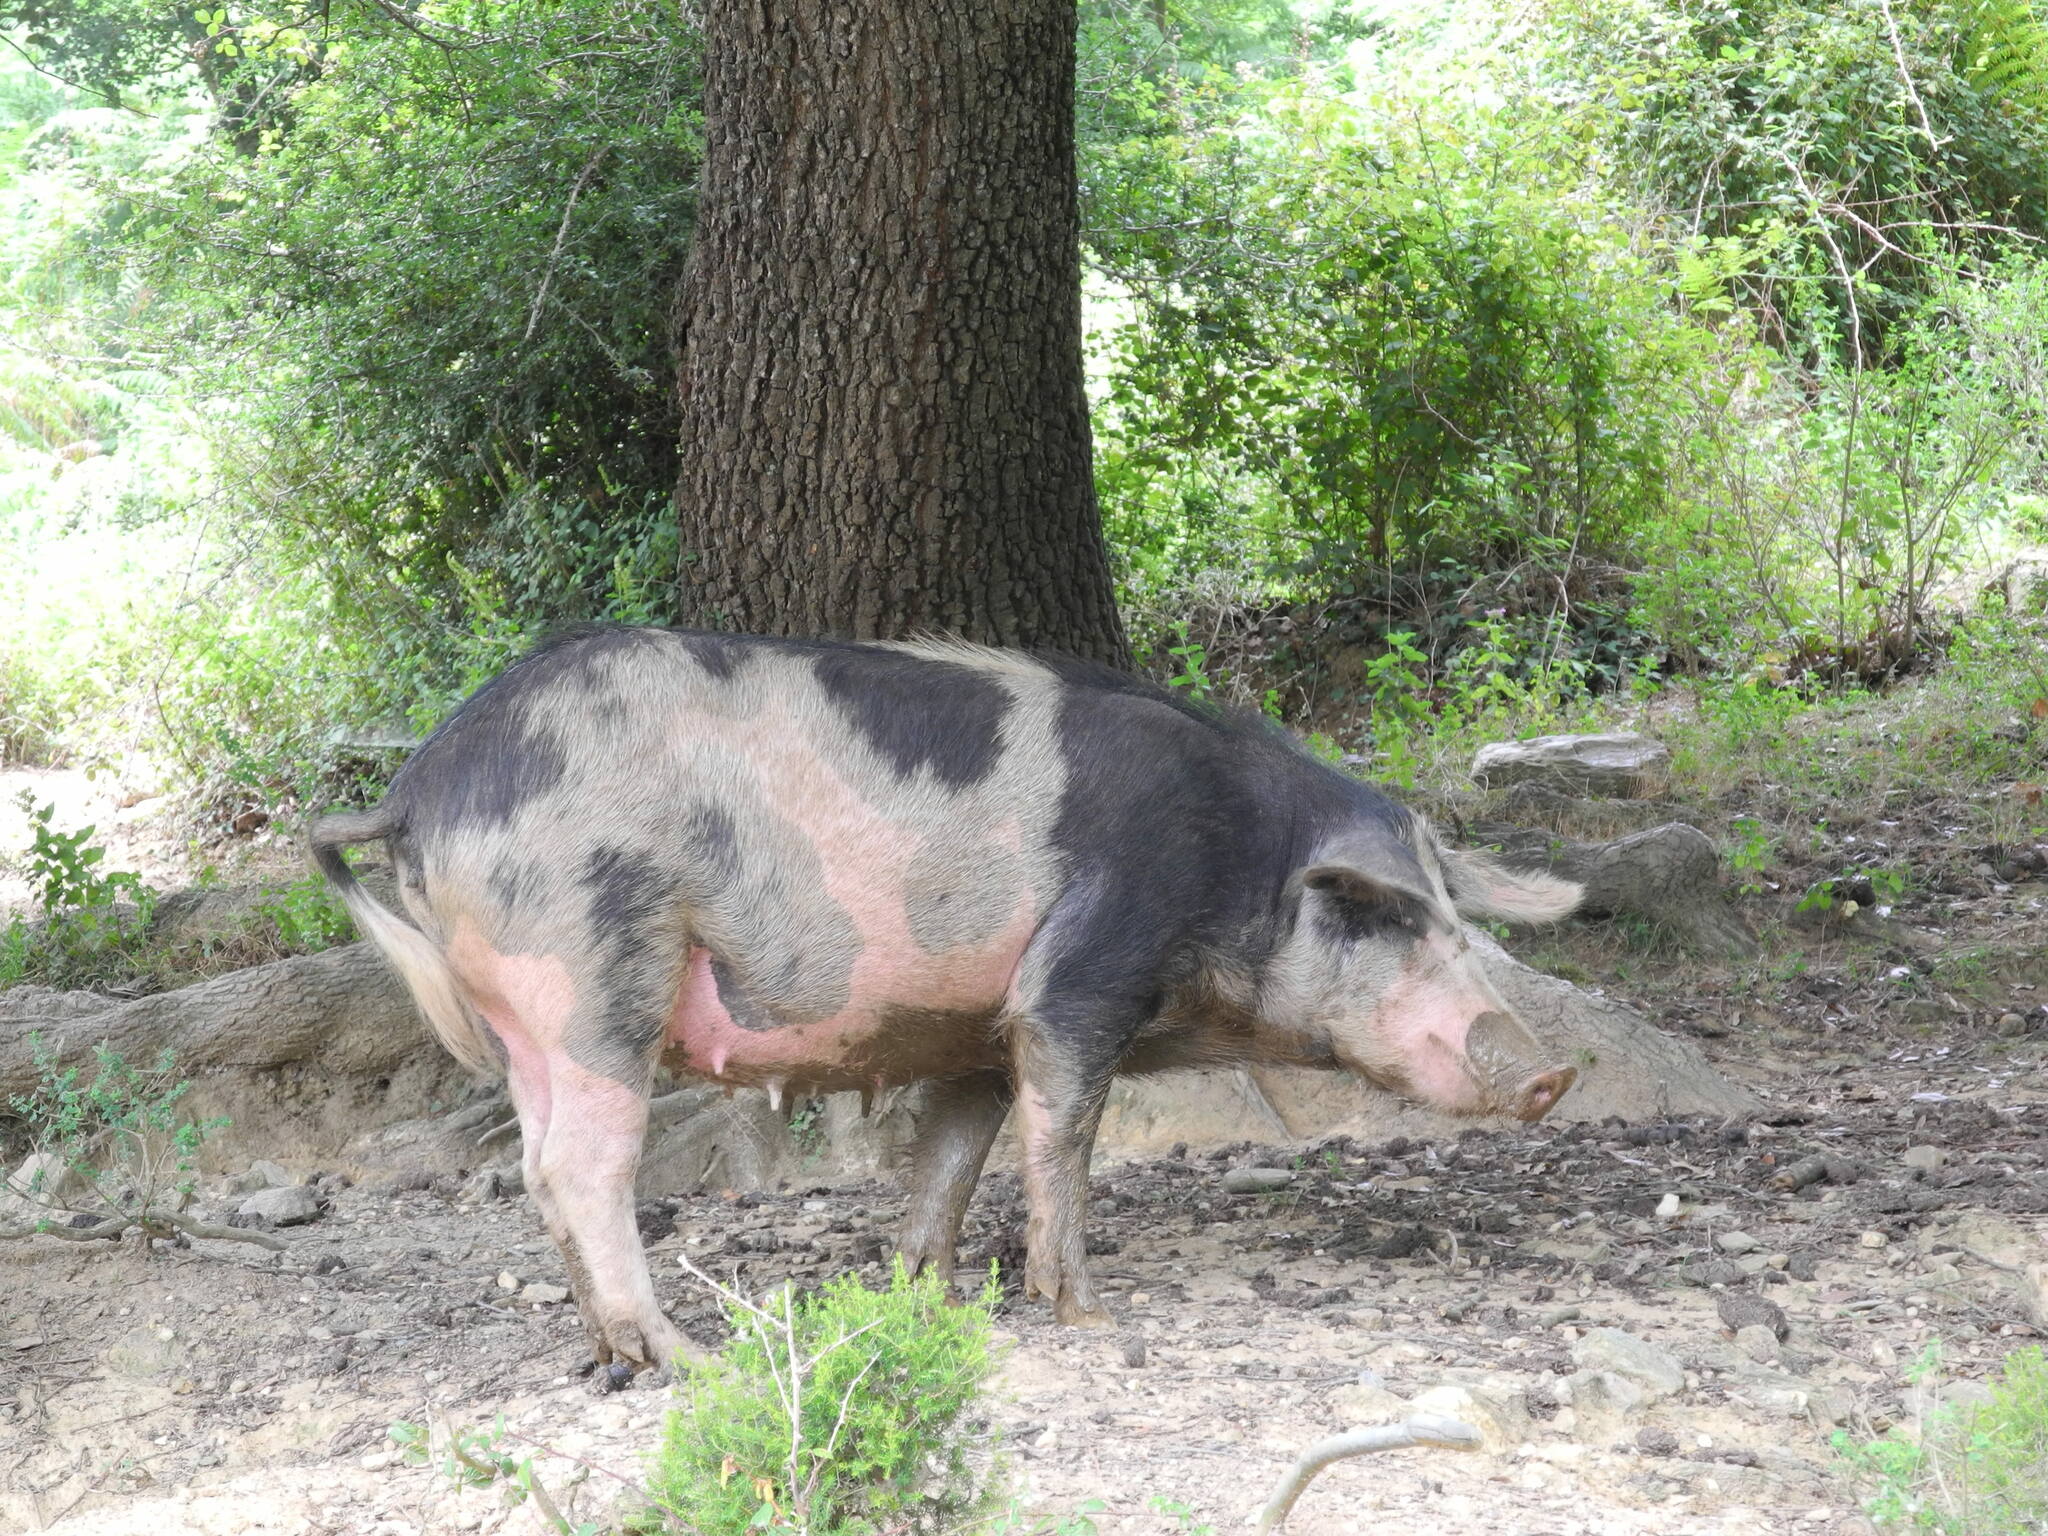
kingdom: Animalia
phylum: Chordata
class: Mammalia
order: Artiodactyla
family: Suidae
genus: Sus
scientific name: Sus scrofa
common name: Wild boar
